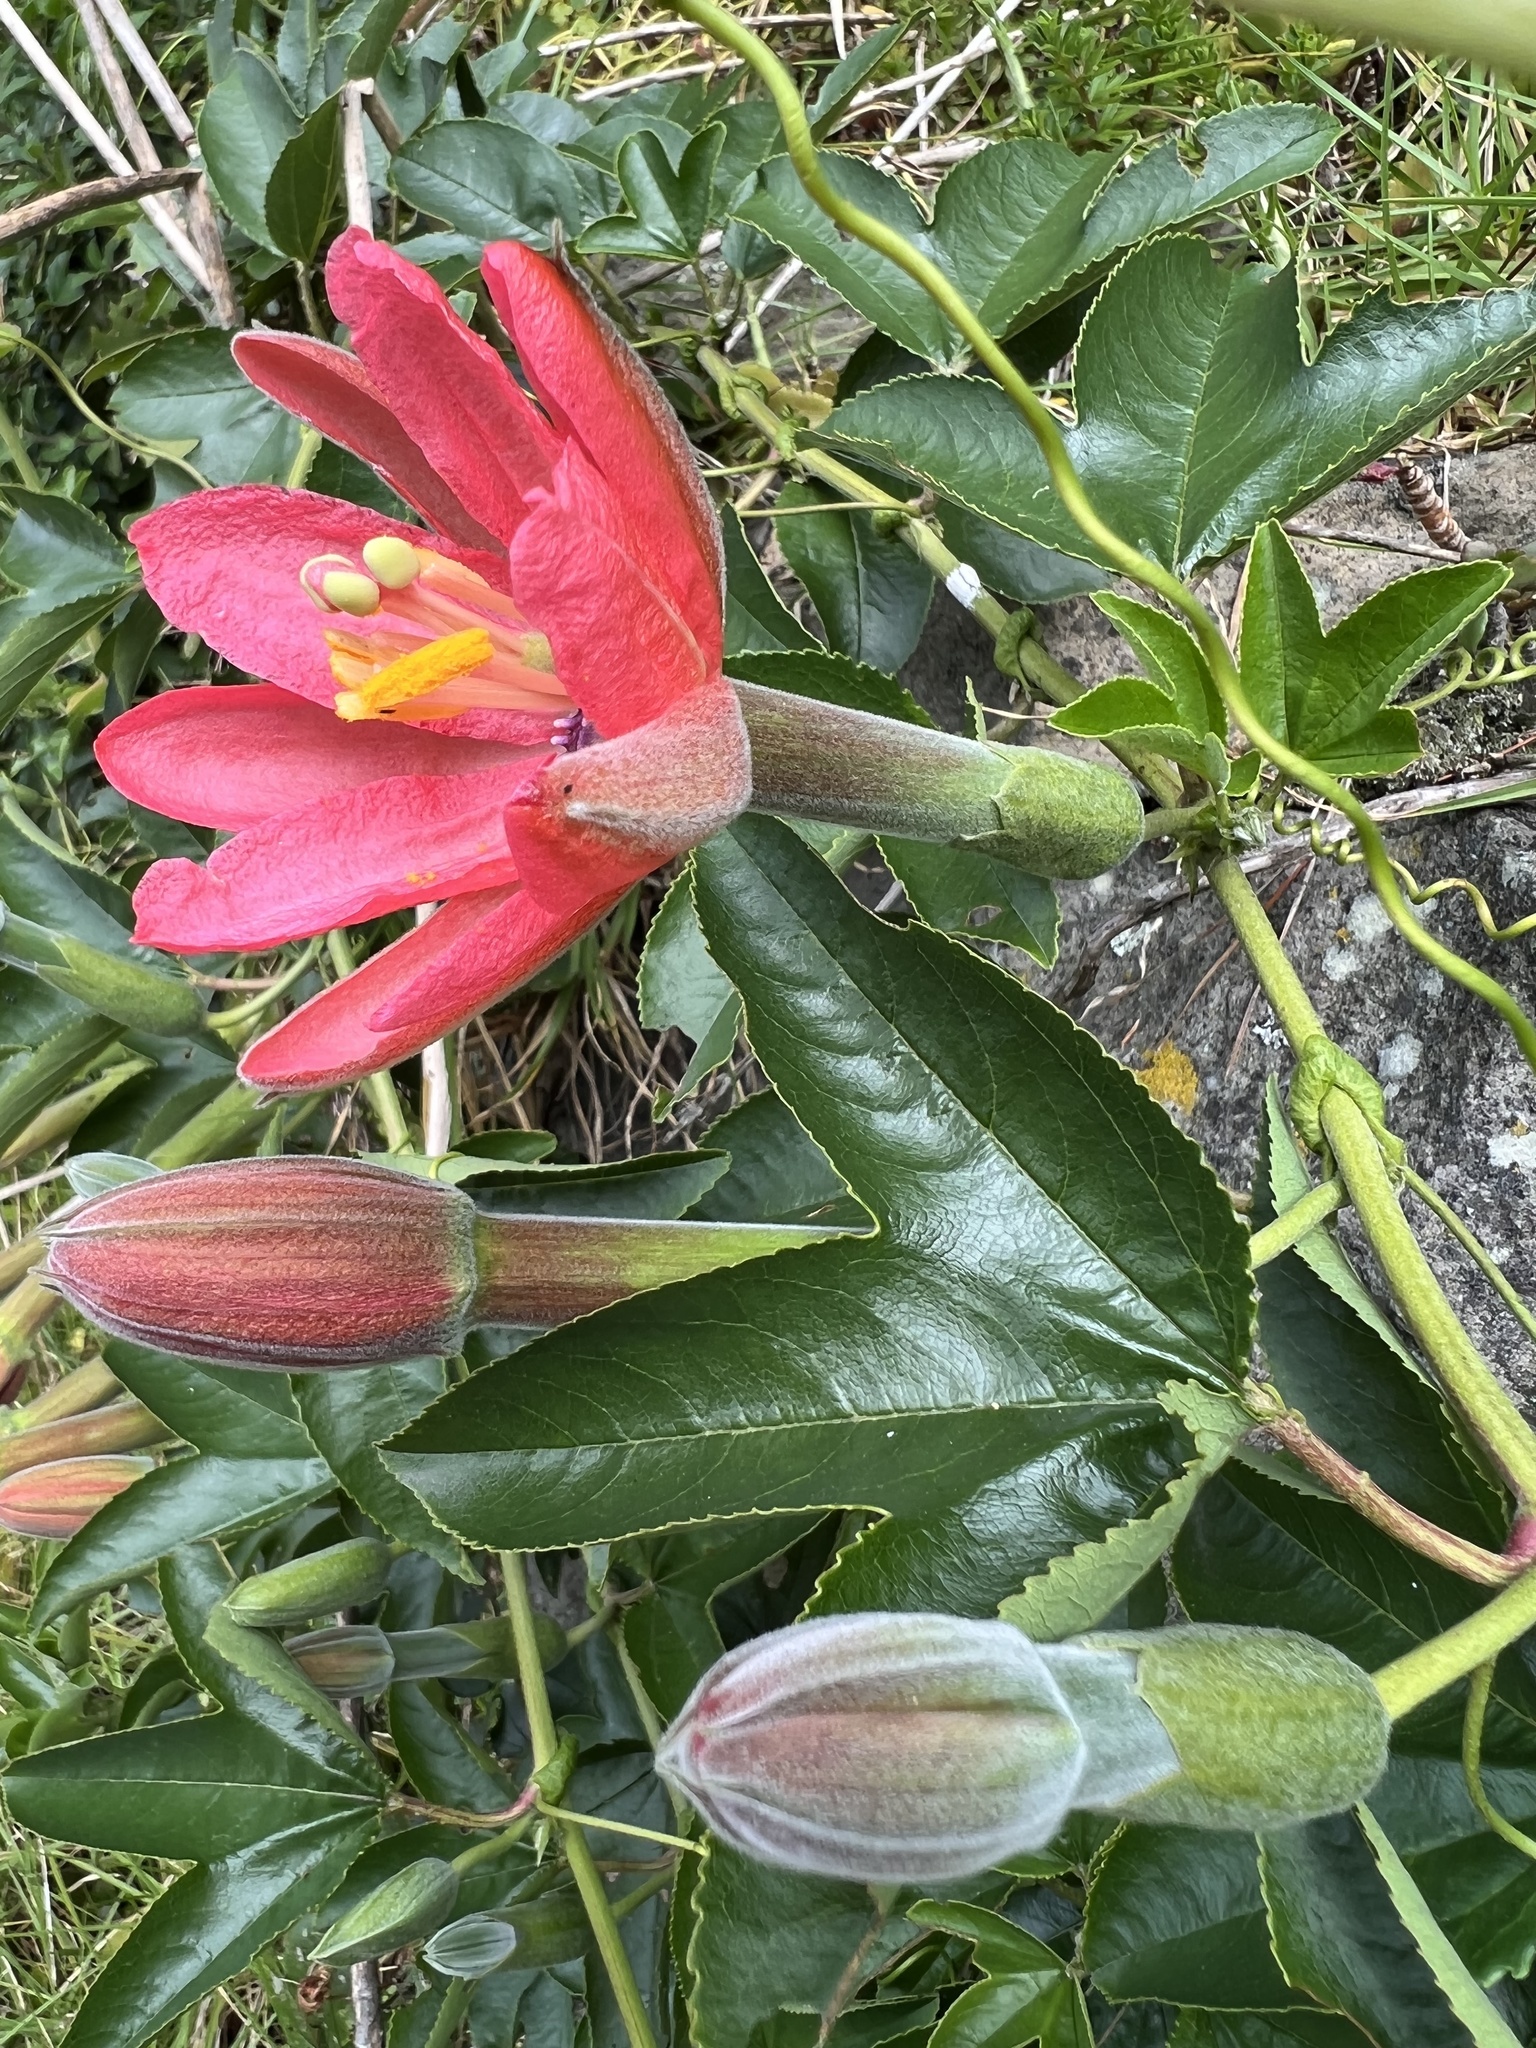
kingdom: Plantae
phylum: Tracheophyta
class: Magnoliopsida
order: Malpighiales
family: Passifloraceae
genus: Passiflora
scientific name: Passiflora mixta
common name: Passion flower
